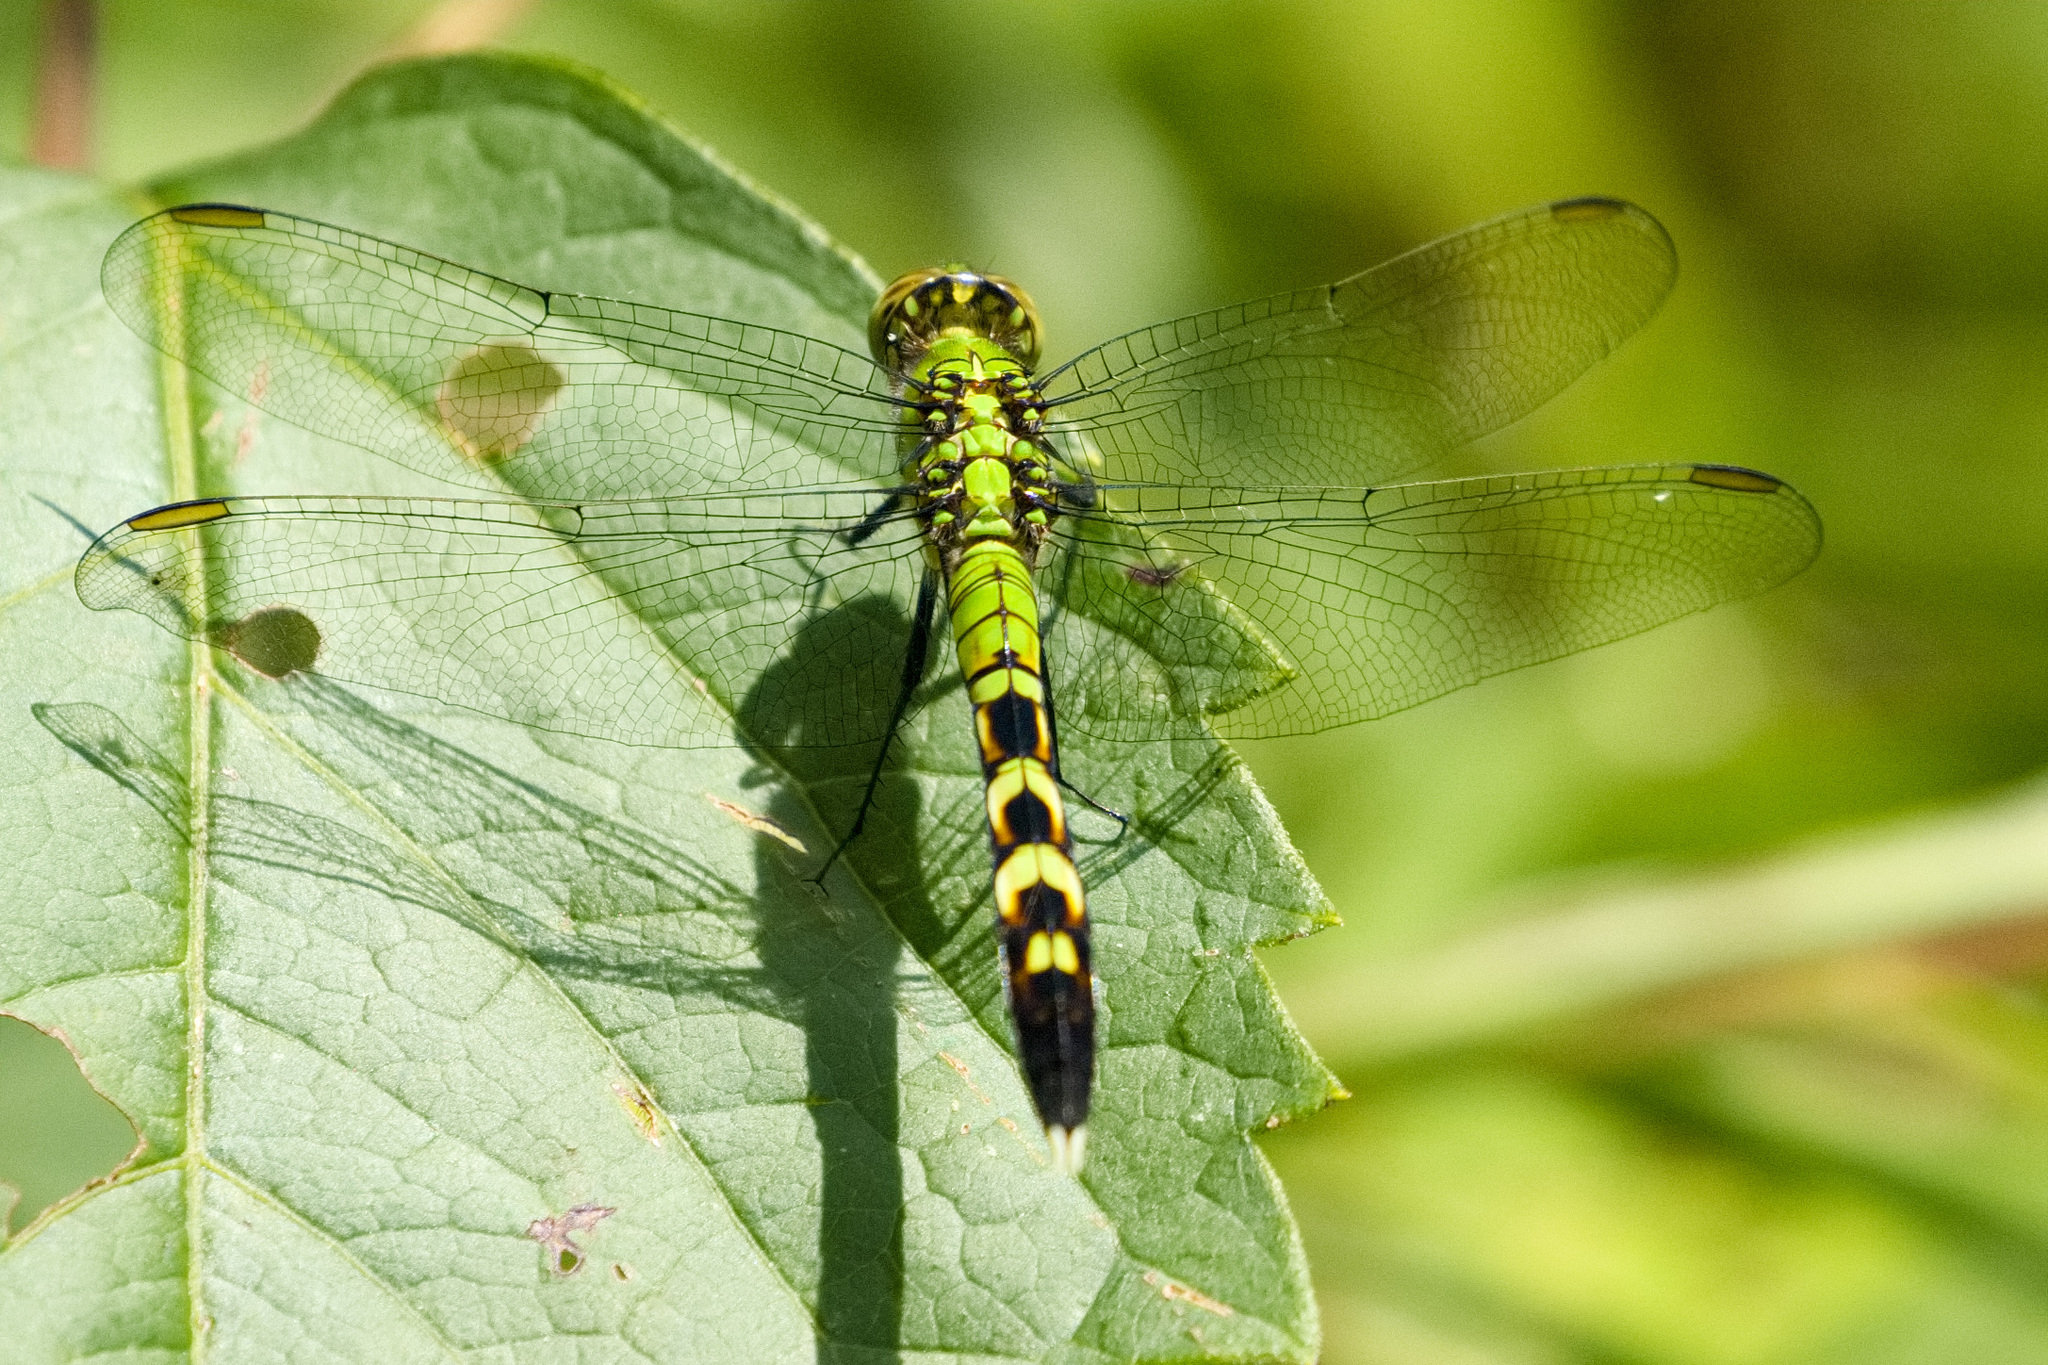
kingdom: Animalia
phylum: Arthropoda
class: Insecta
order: Odonata
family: Libellulidae
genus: Erythemis
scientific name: Erythemis simplicicollis
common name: Eastern pondhawk
